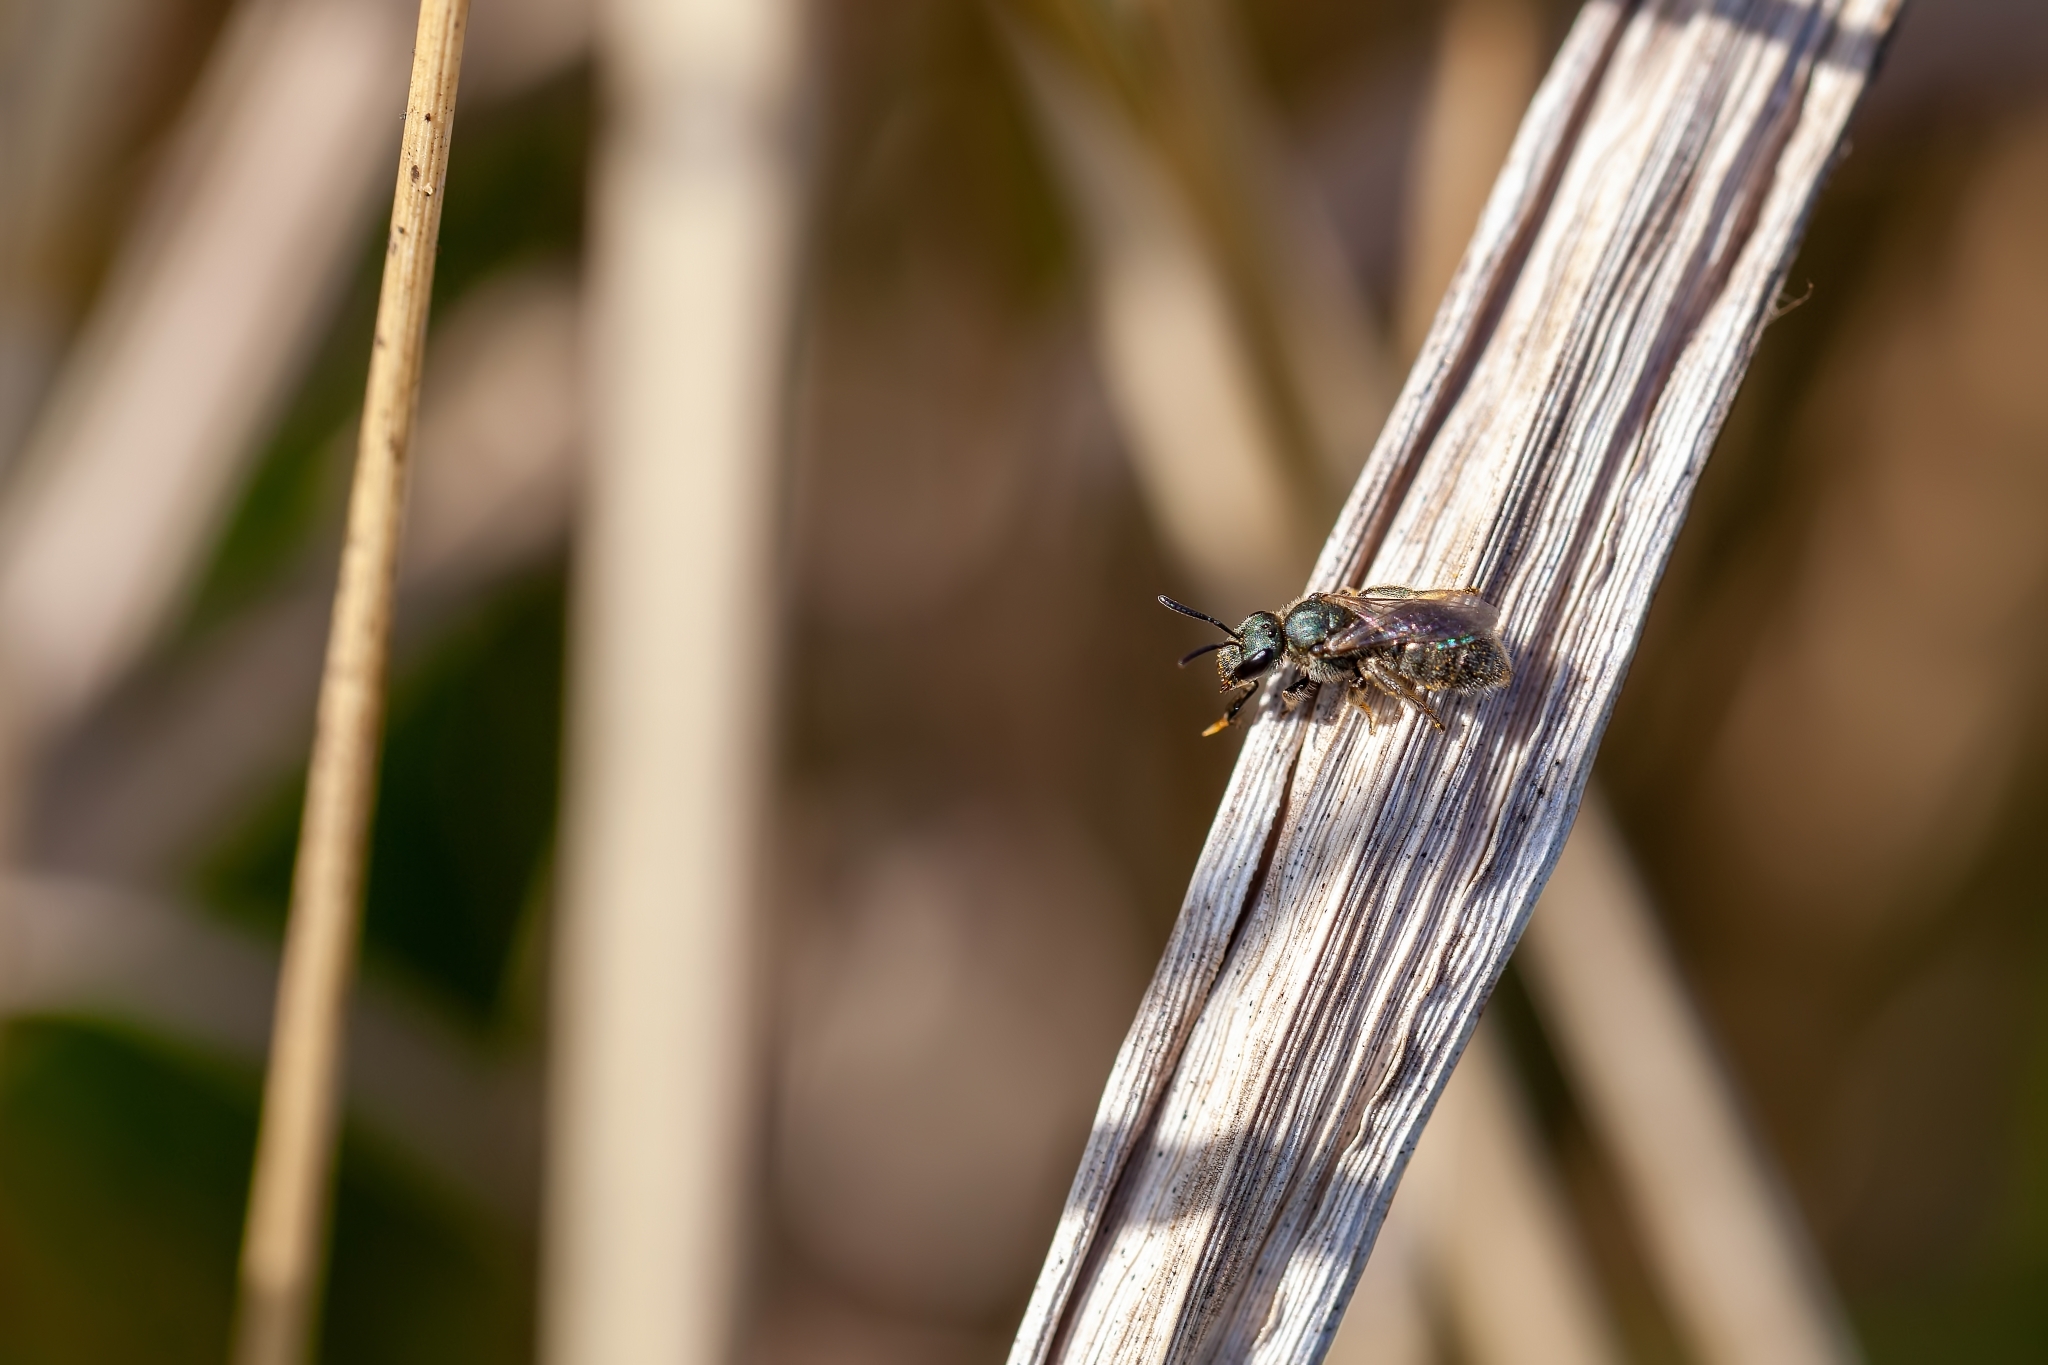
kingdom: Animalia
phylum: Arthropoda
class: Insecta
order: Hymenoptera
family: Halictidae
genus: Lasioglossum
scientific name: Lasioglossum creberrimum
